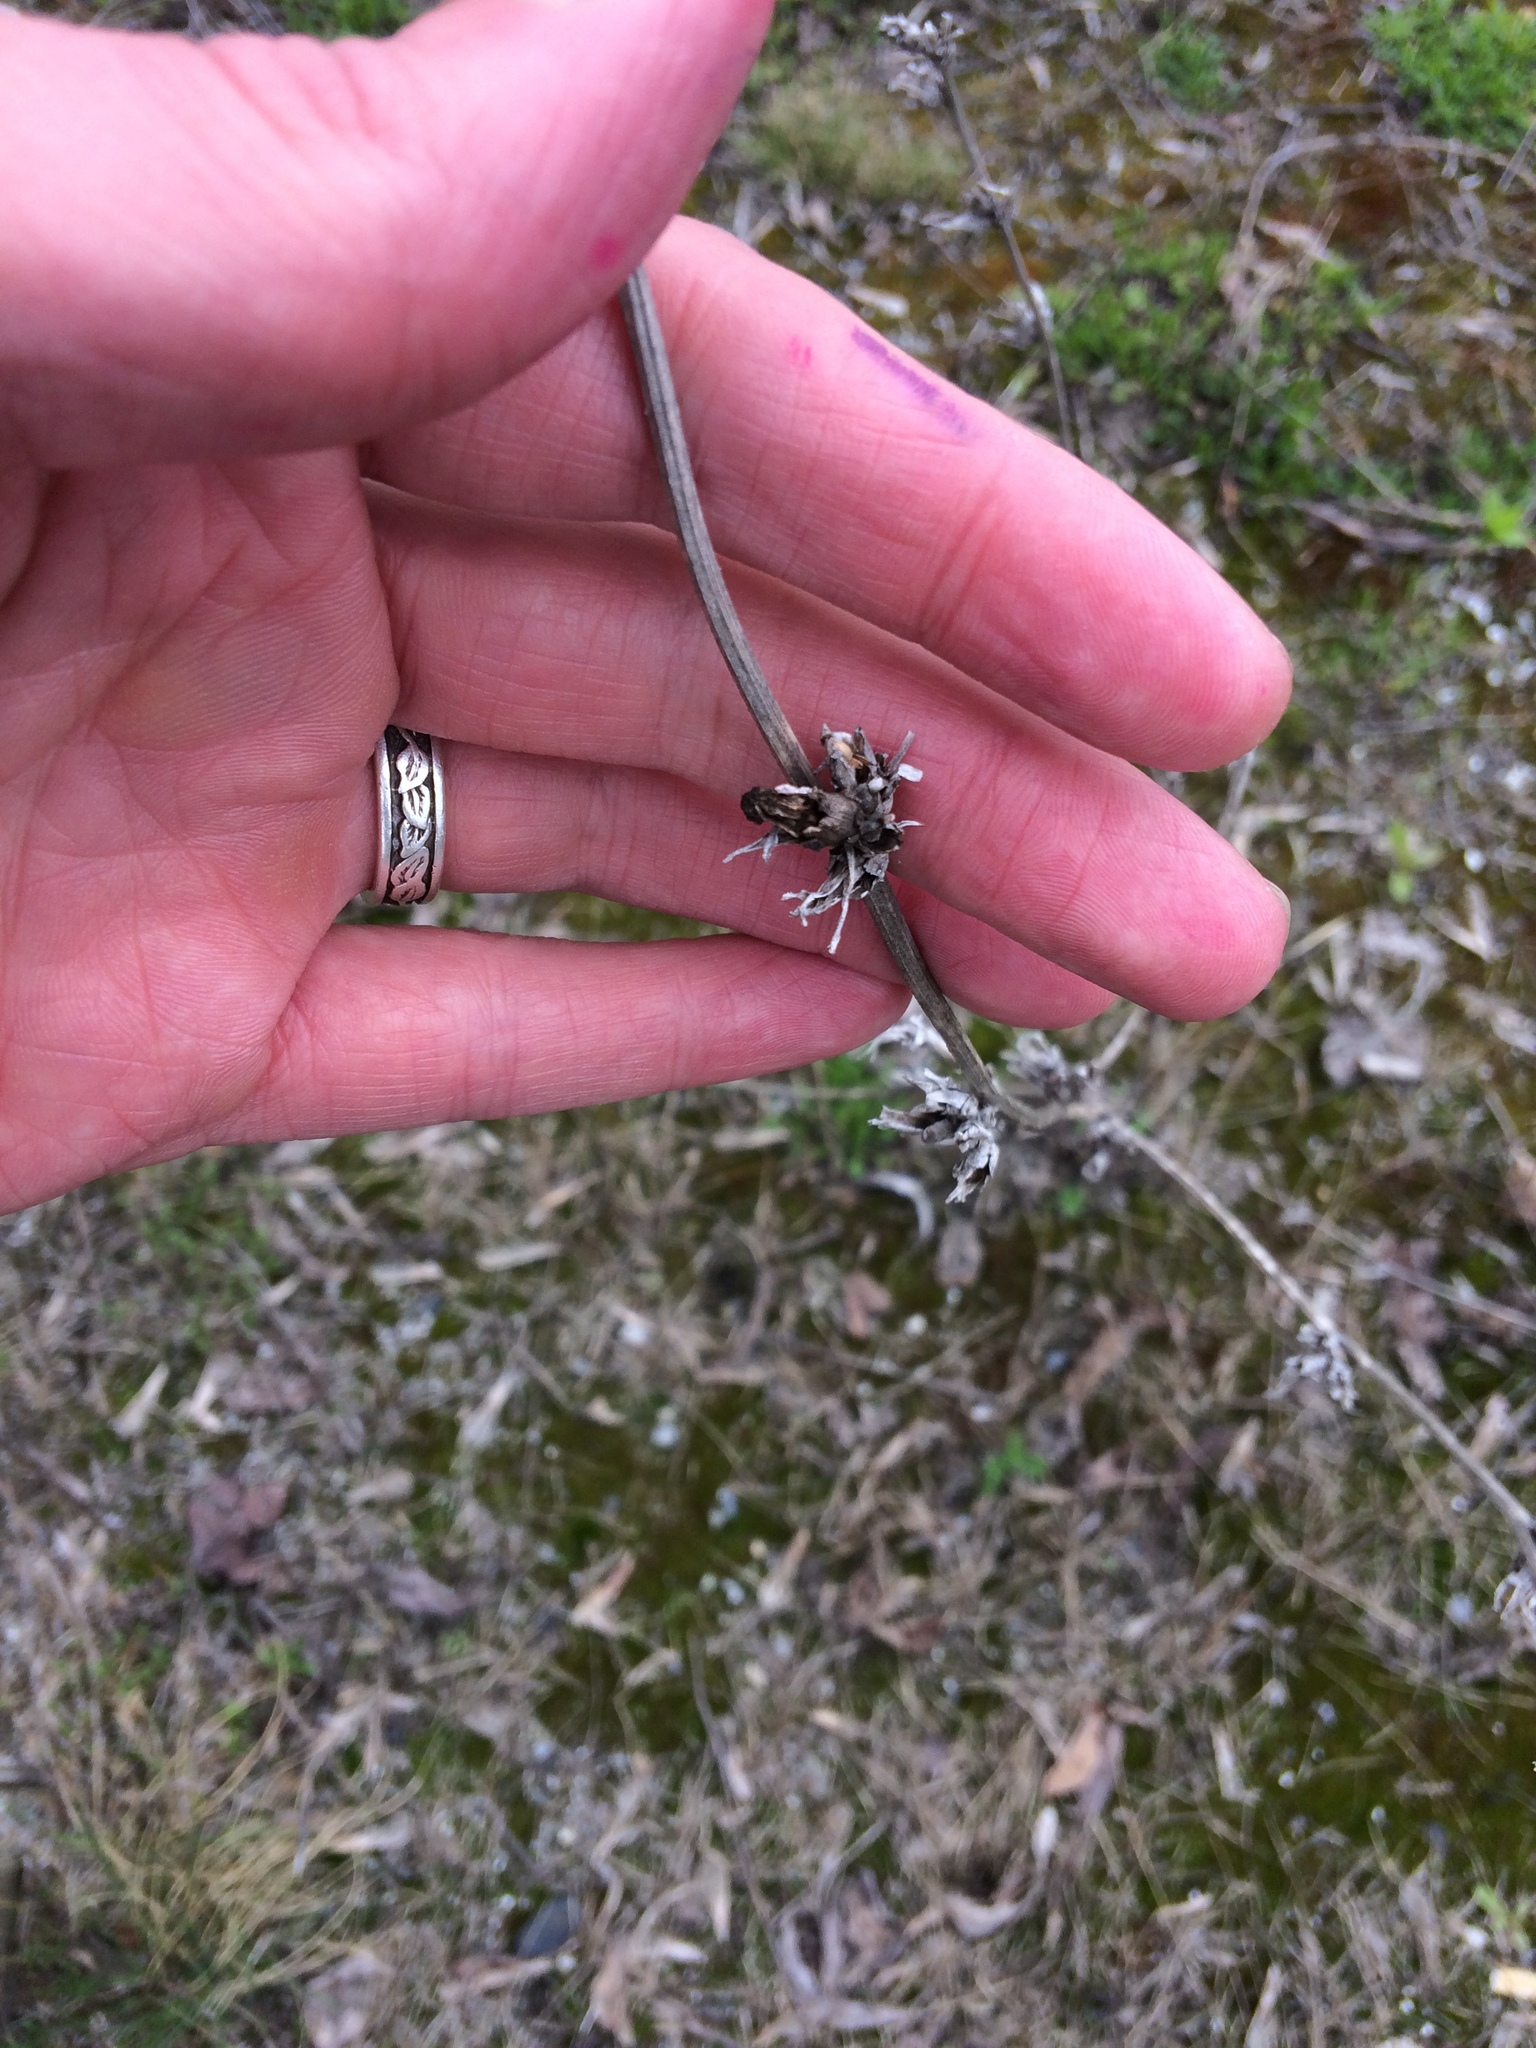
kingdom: Plantae
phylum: Tracheophyta
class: Magnoliopsida
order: Asterales
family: Asteraceae
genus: Cichorium
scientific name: Cichorium intybus
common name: Chicory
